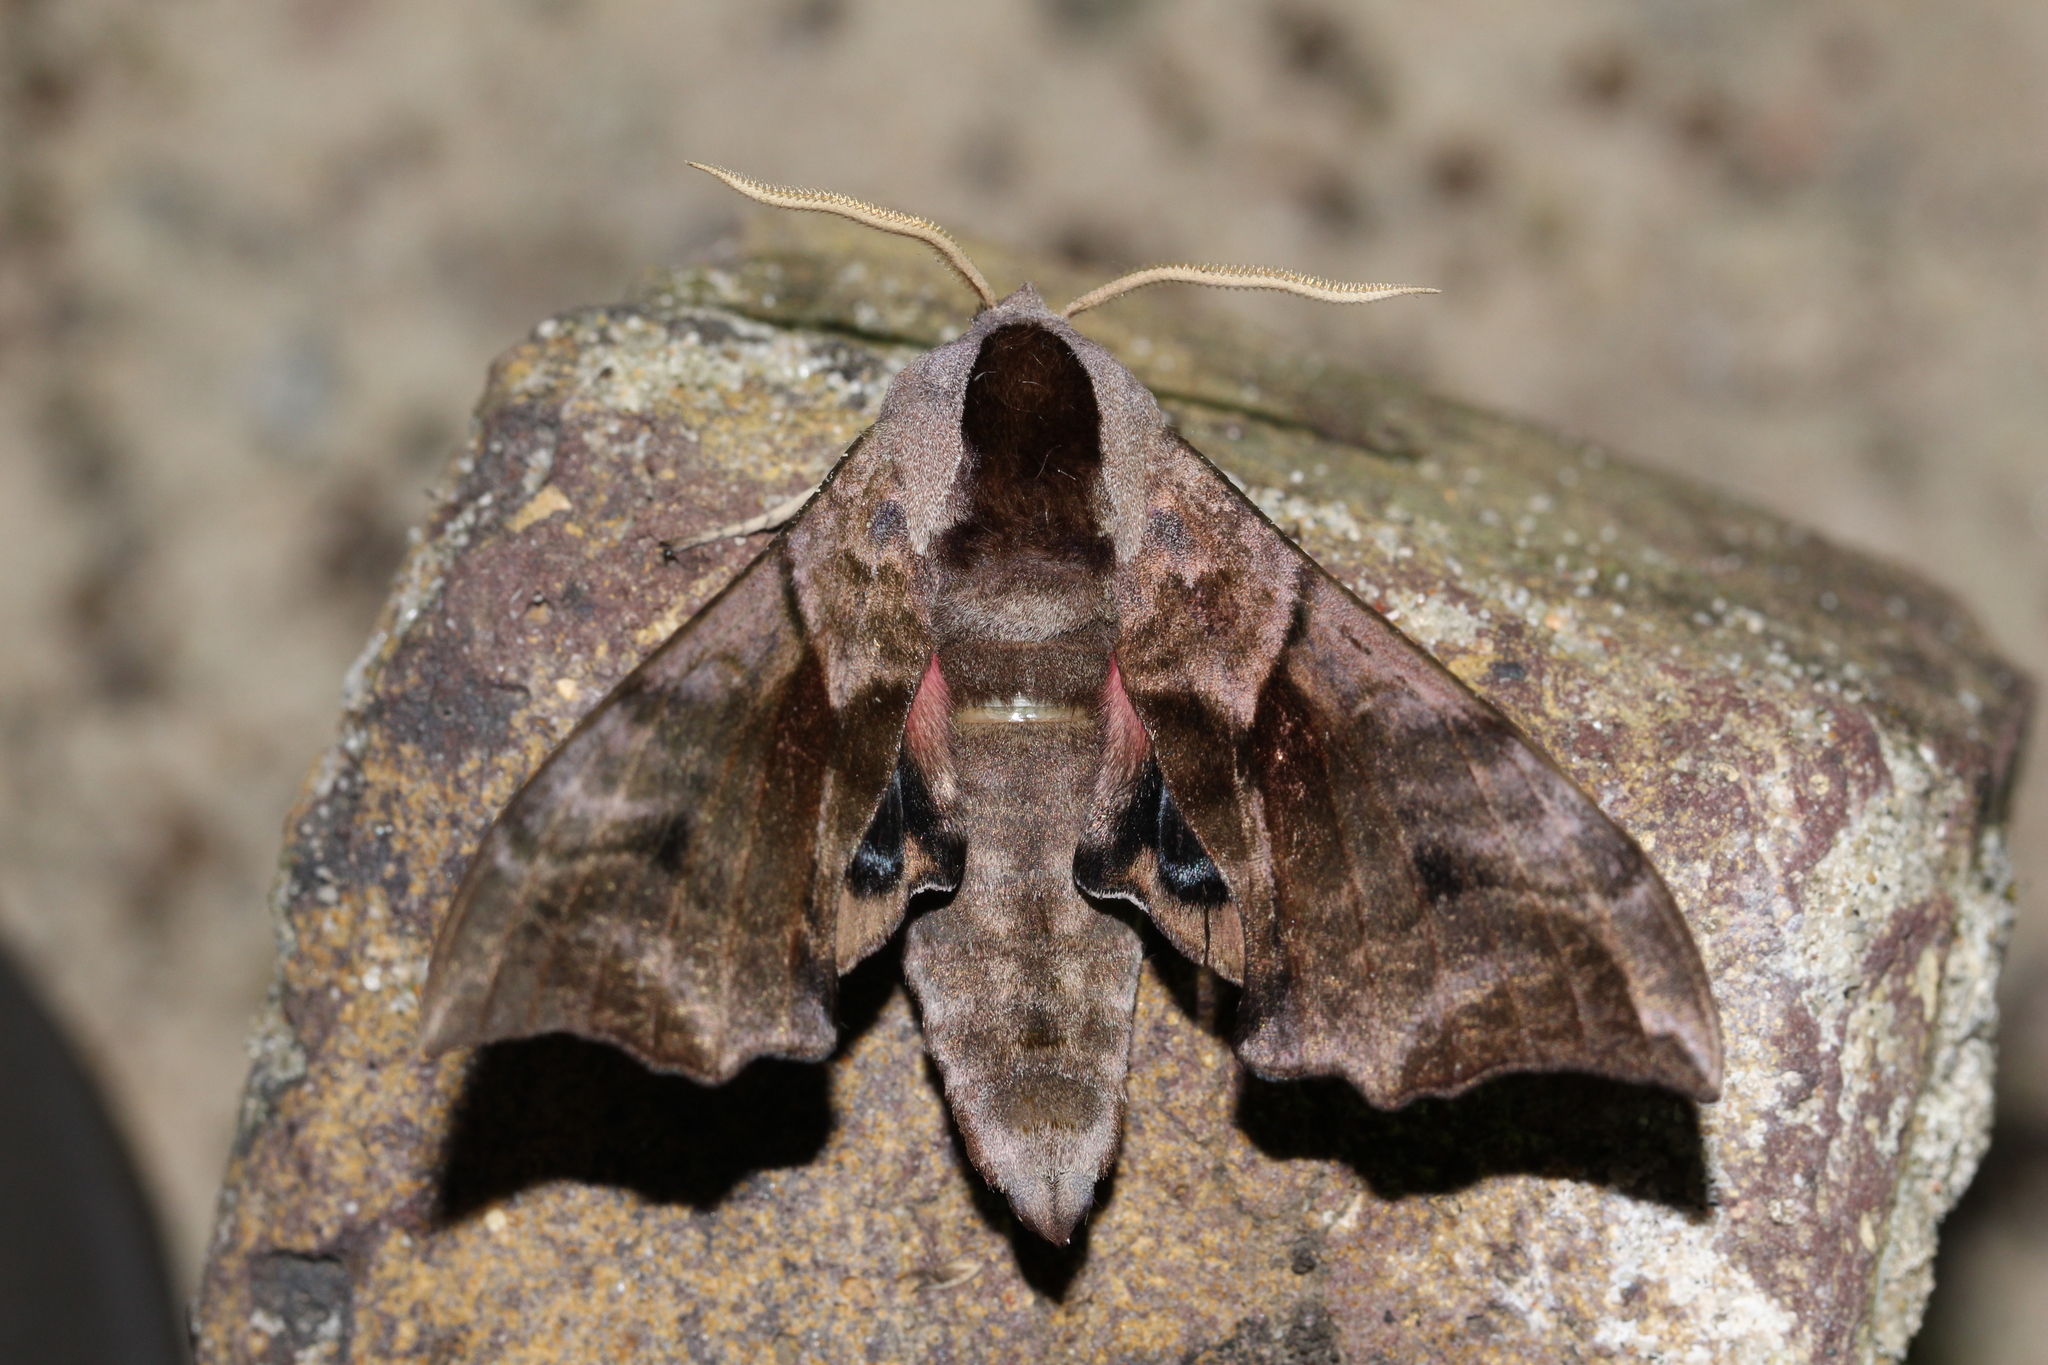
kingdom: Animalia
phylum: Arthropoda
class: Insecta
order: Lepidoptera
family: Sphingidae
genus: Smerinthus
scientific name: Smerinthus ocellata
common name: Eyed hawk-moth
